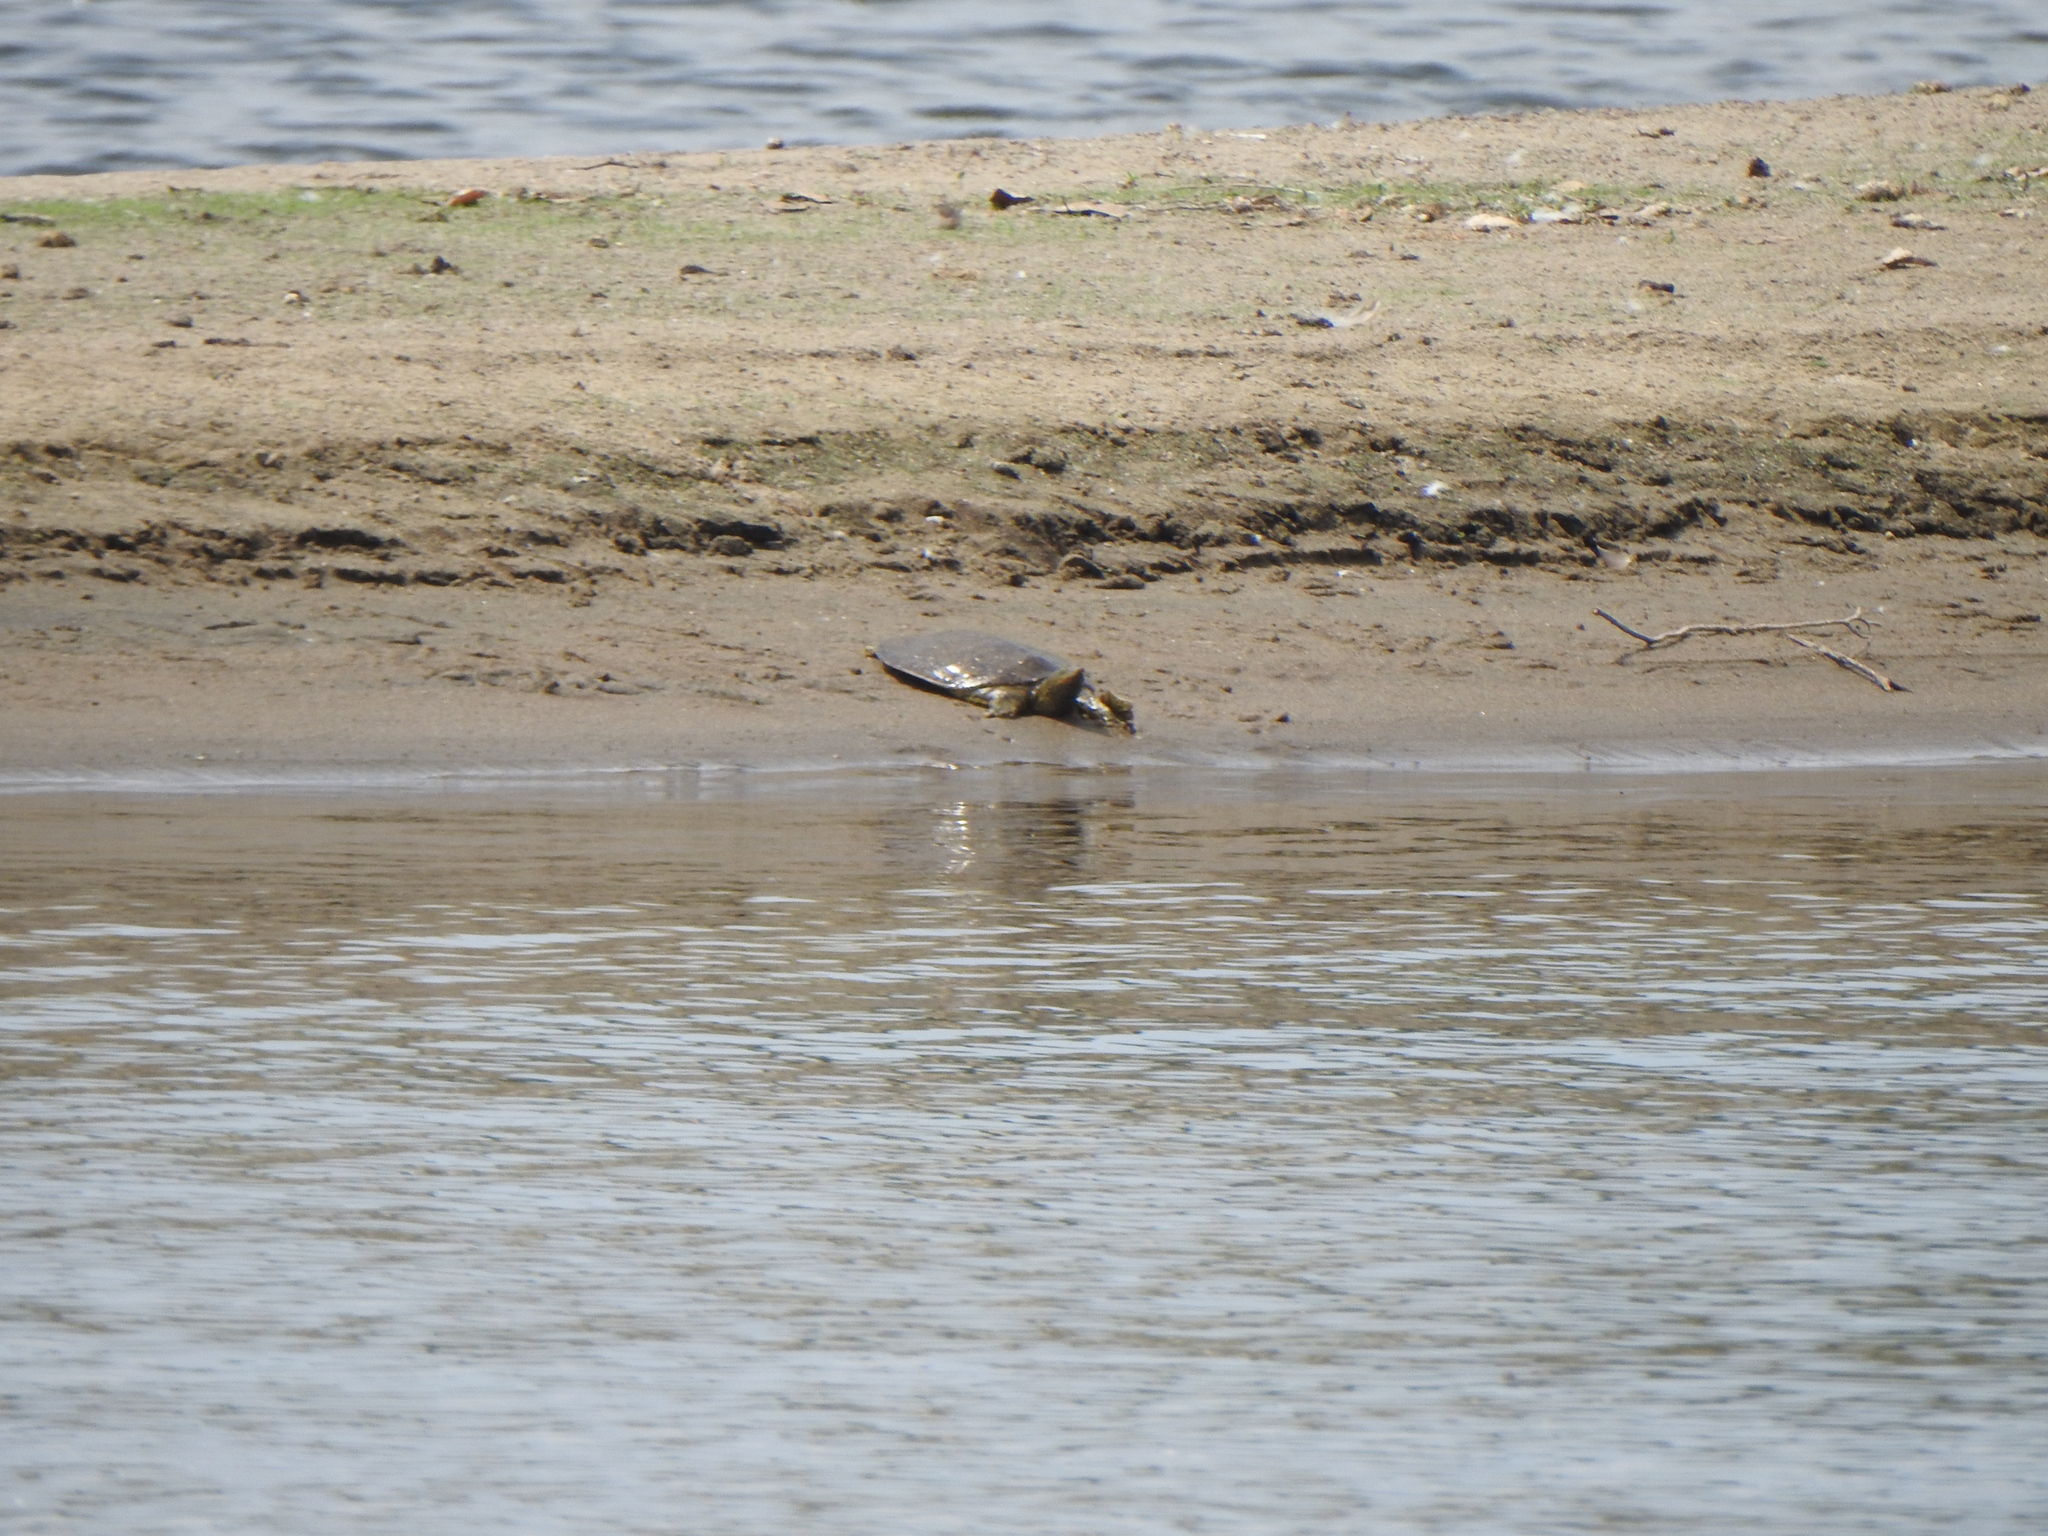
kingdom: Animalia
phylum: Chordata
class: Testudines
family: Trionychidae
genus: Apalone
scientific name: Apalone spinifera
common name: Spiny softshell turtle
